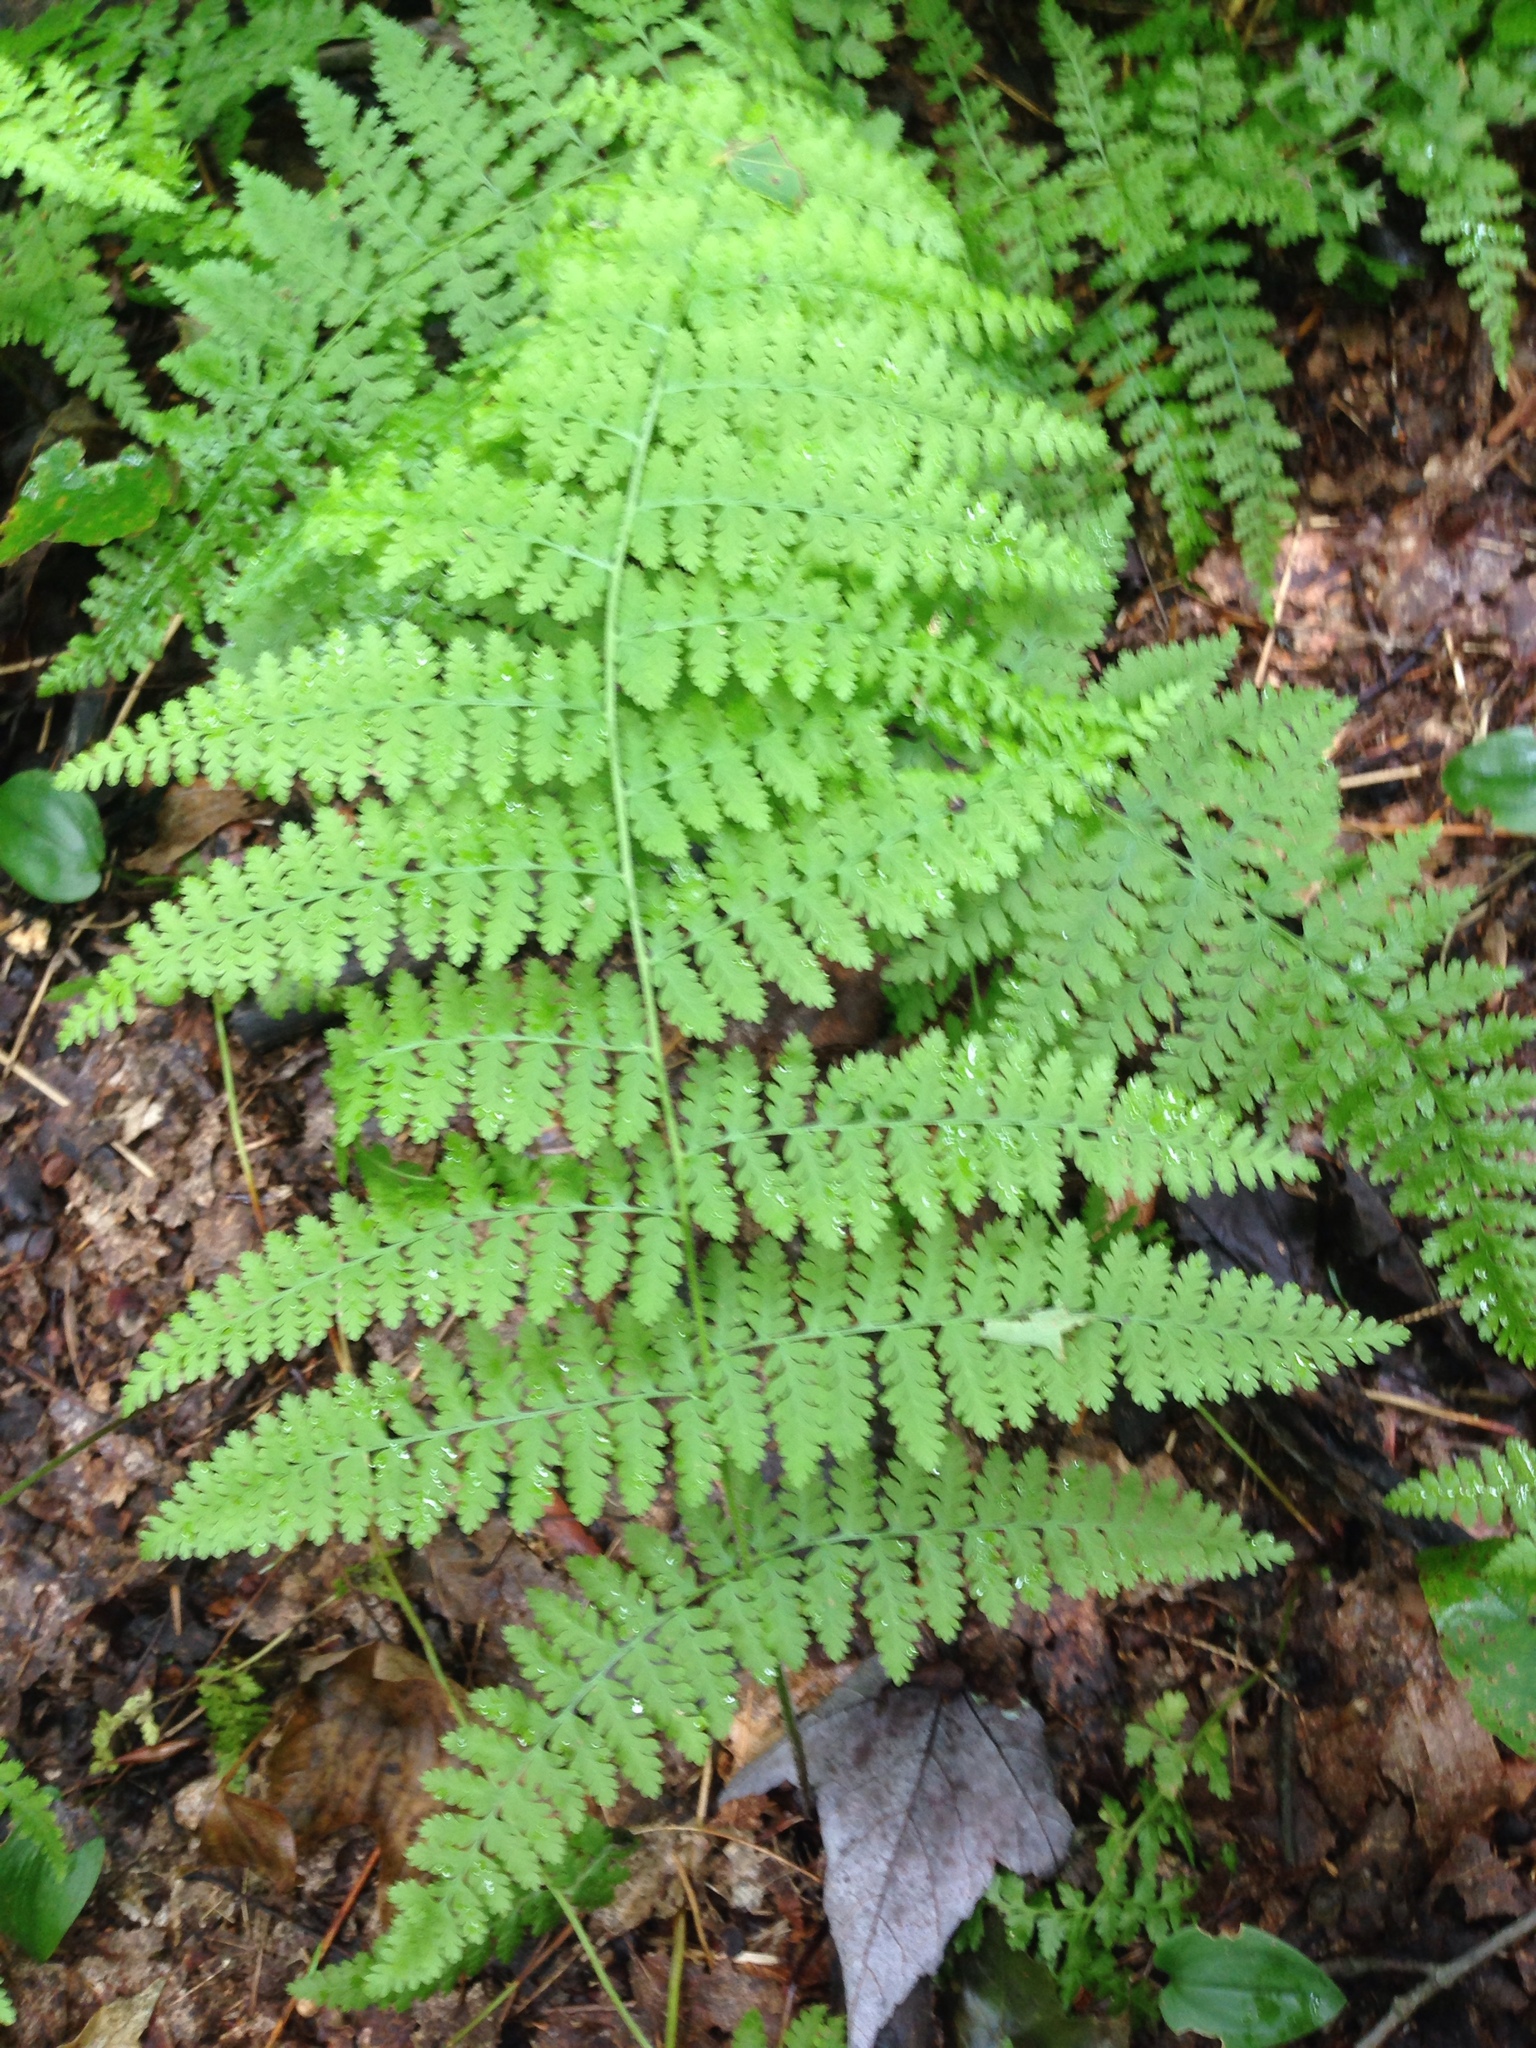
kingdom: Plantae
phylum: Tracheophyta
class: Polypodiopsida
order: Polypodiales
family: Dennstaedtiaceae
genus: Sitobolium
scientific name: Sitobolium punctilobum
